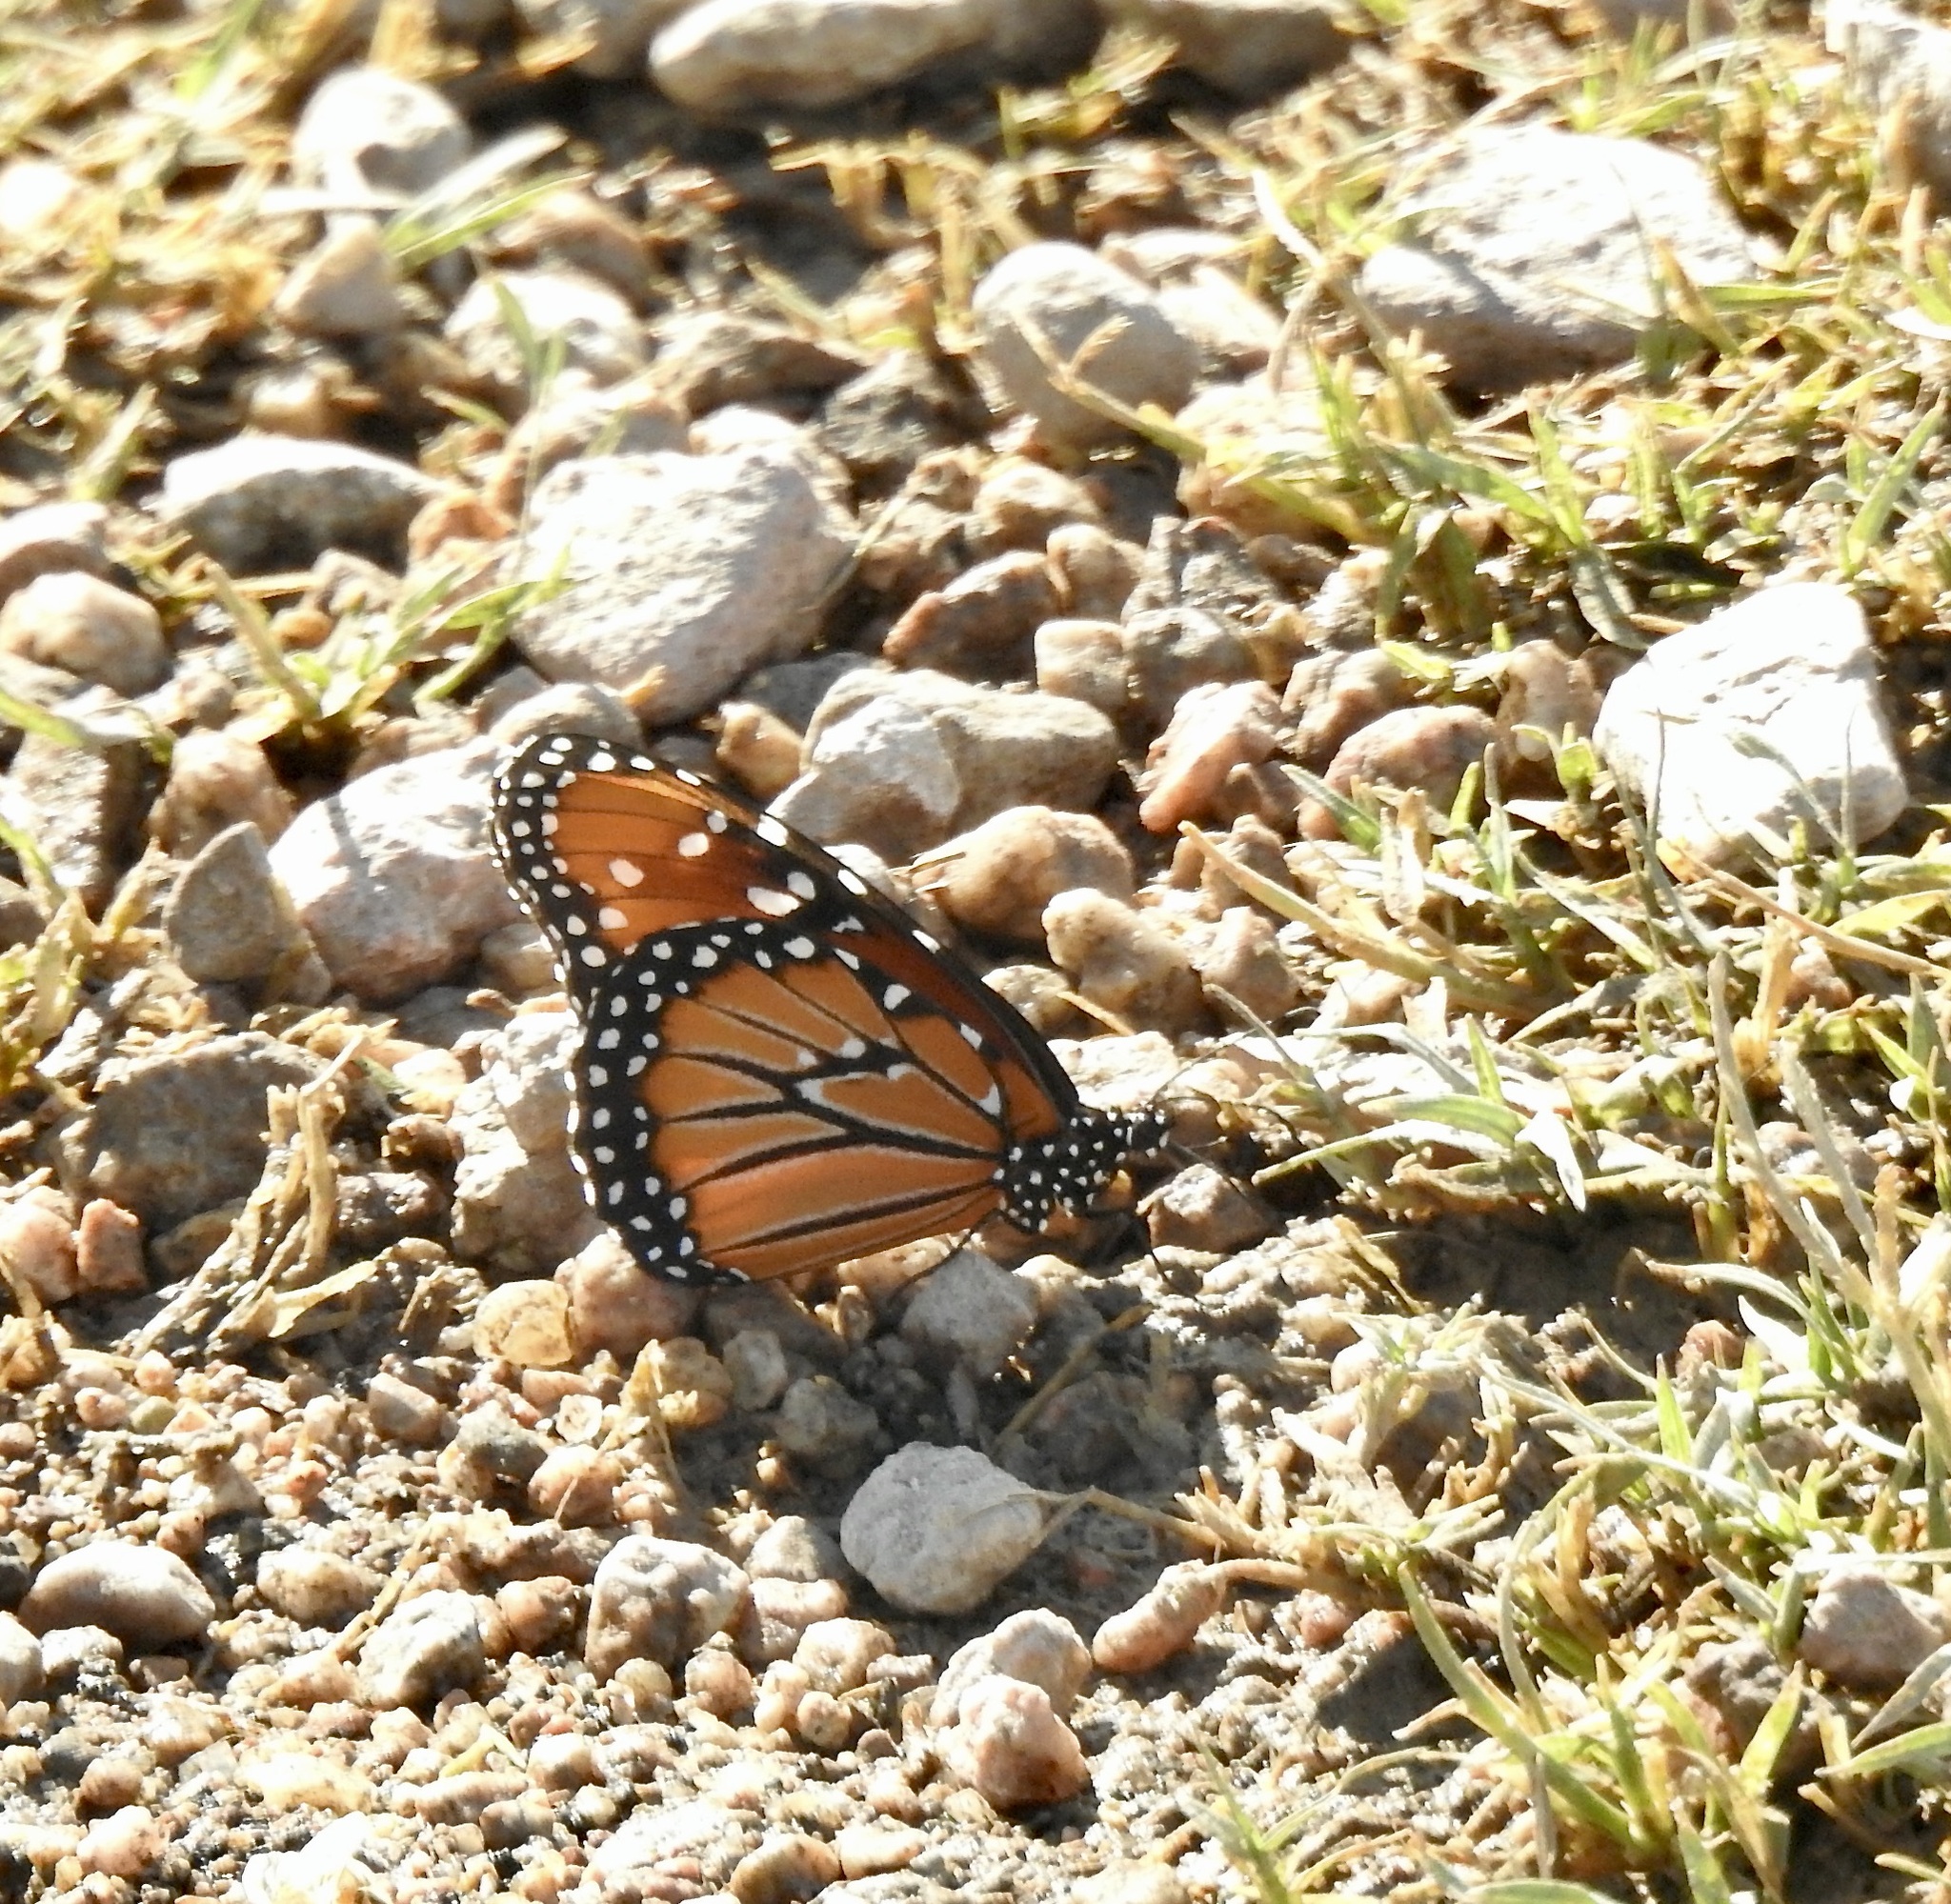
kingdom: Animalia
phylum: Arthropoda
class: Insecta
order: Lepidoptera
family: Nymphalidae
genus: Danaus
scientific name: Danaus gilippus
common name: Queen
